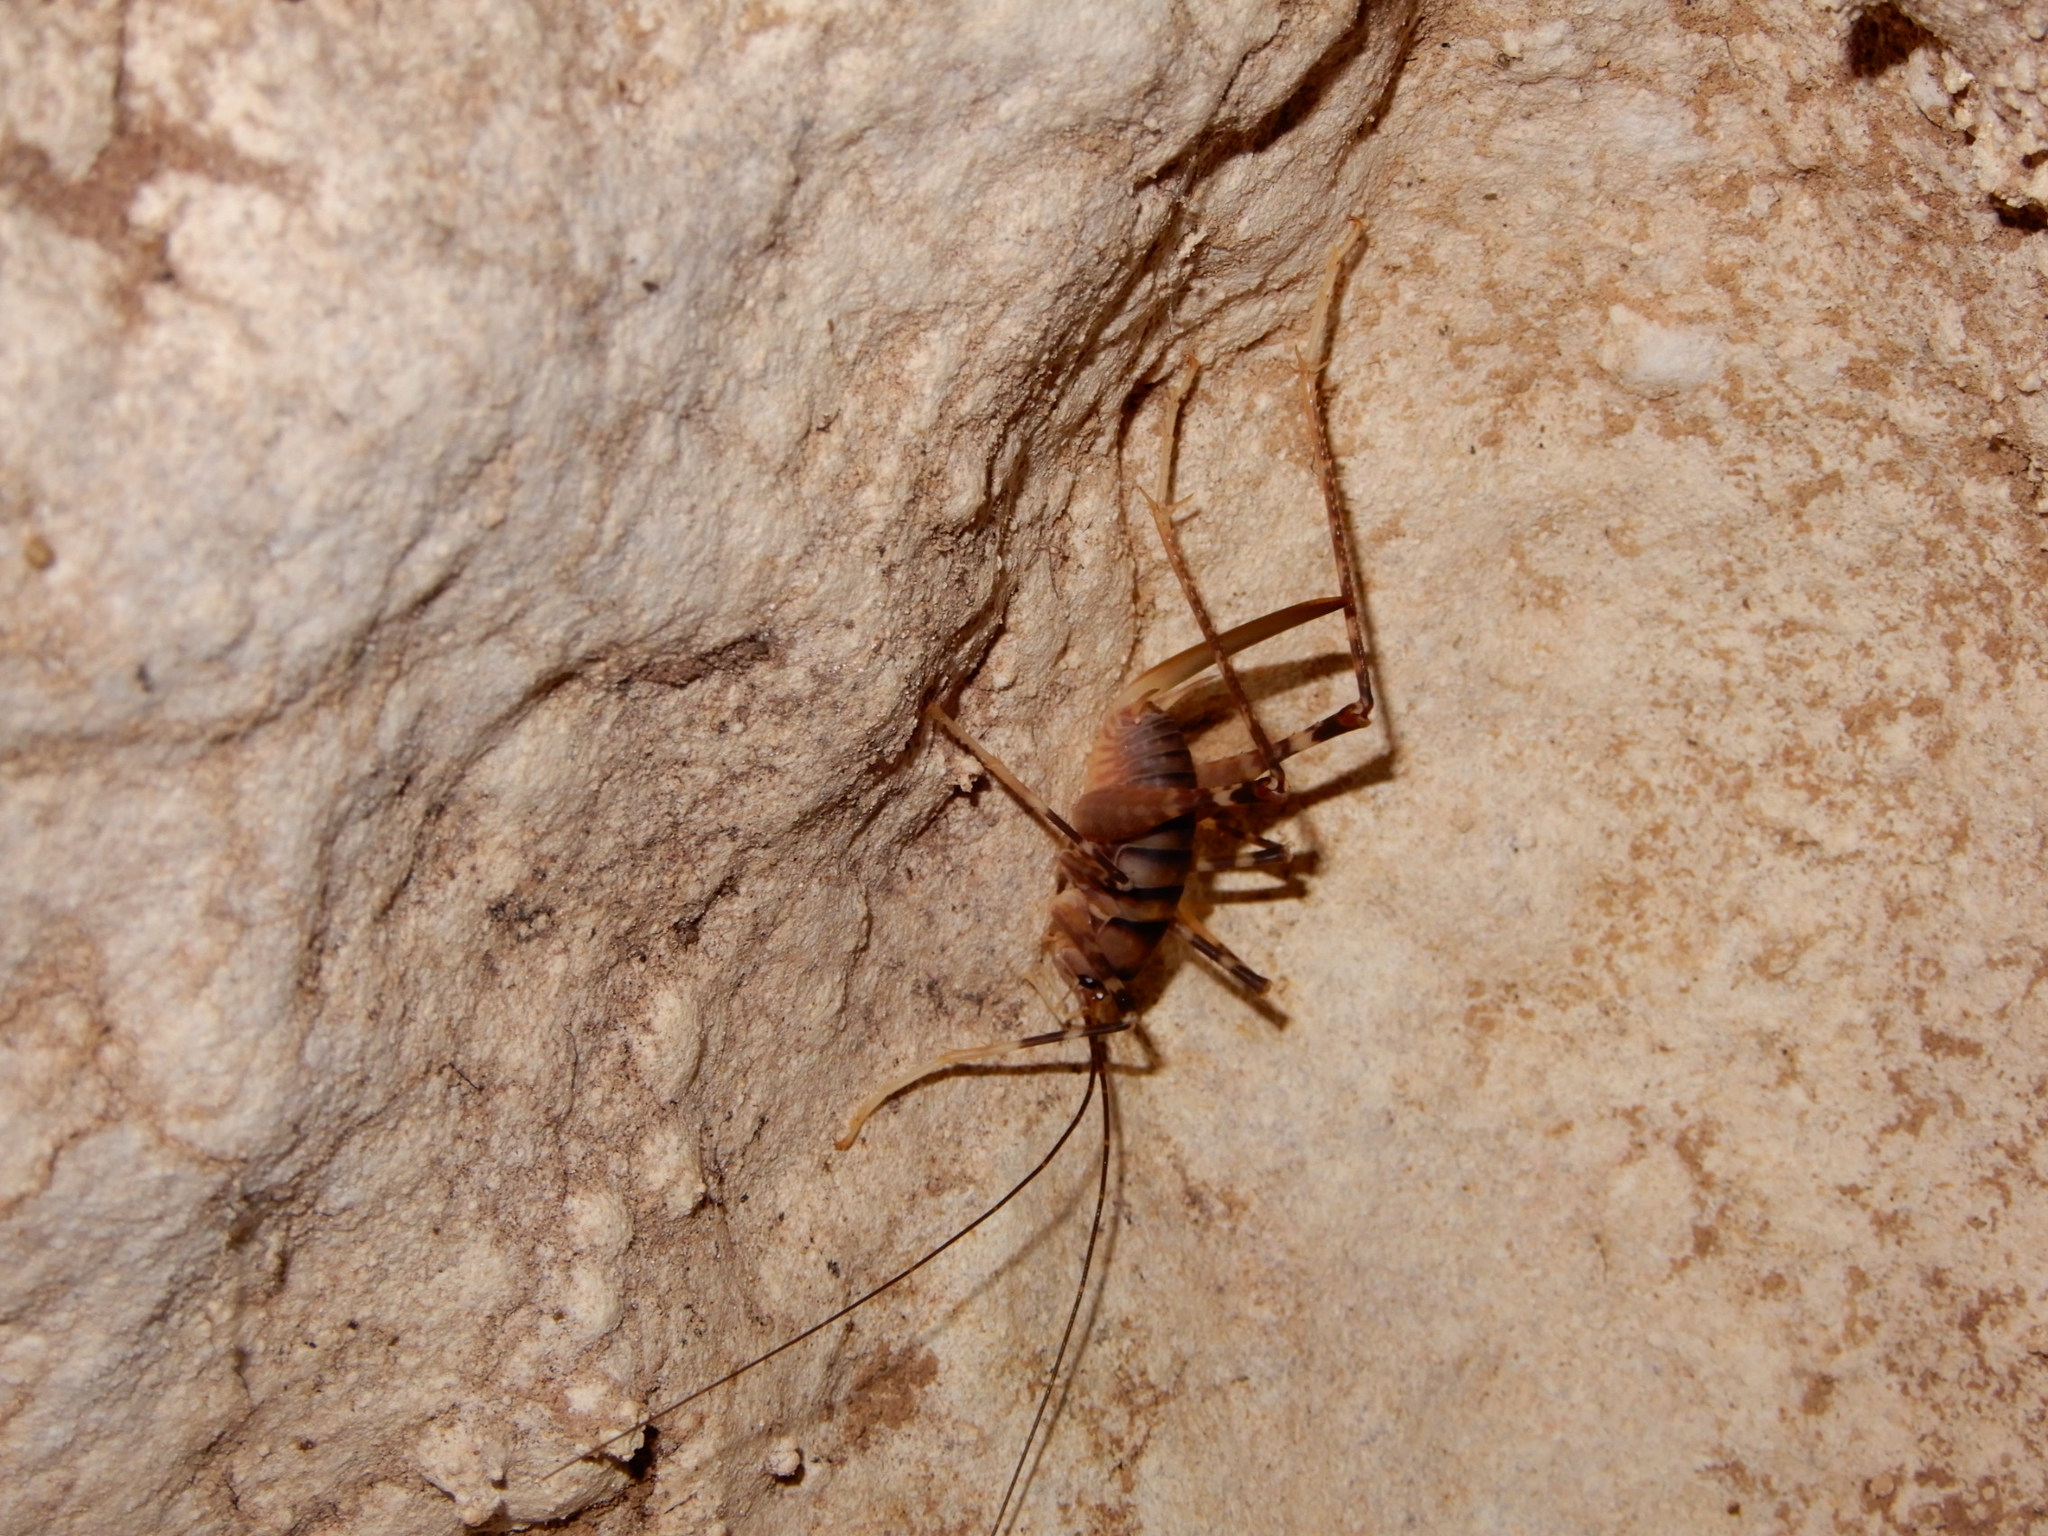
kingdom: Animalia
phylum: Arthropoda
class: Insecta
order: Orthoptera
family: Rhaphidophoridae
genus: Pachyrhamma
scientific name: Pachyrhamma edwardsii
